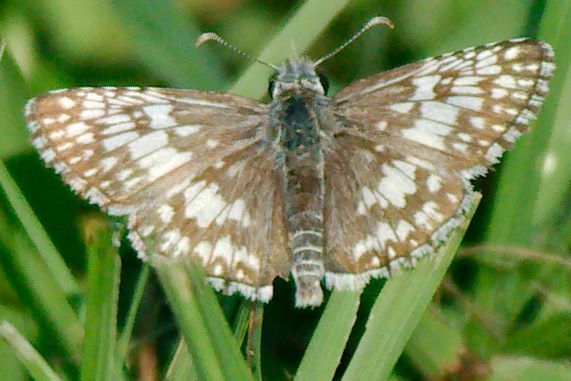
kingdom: Animalia
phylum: Arthropoda
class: Insecta
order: Lepidoptera
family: Hesperiidae
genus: Burnsius
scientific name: Burnsius albezens
